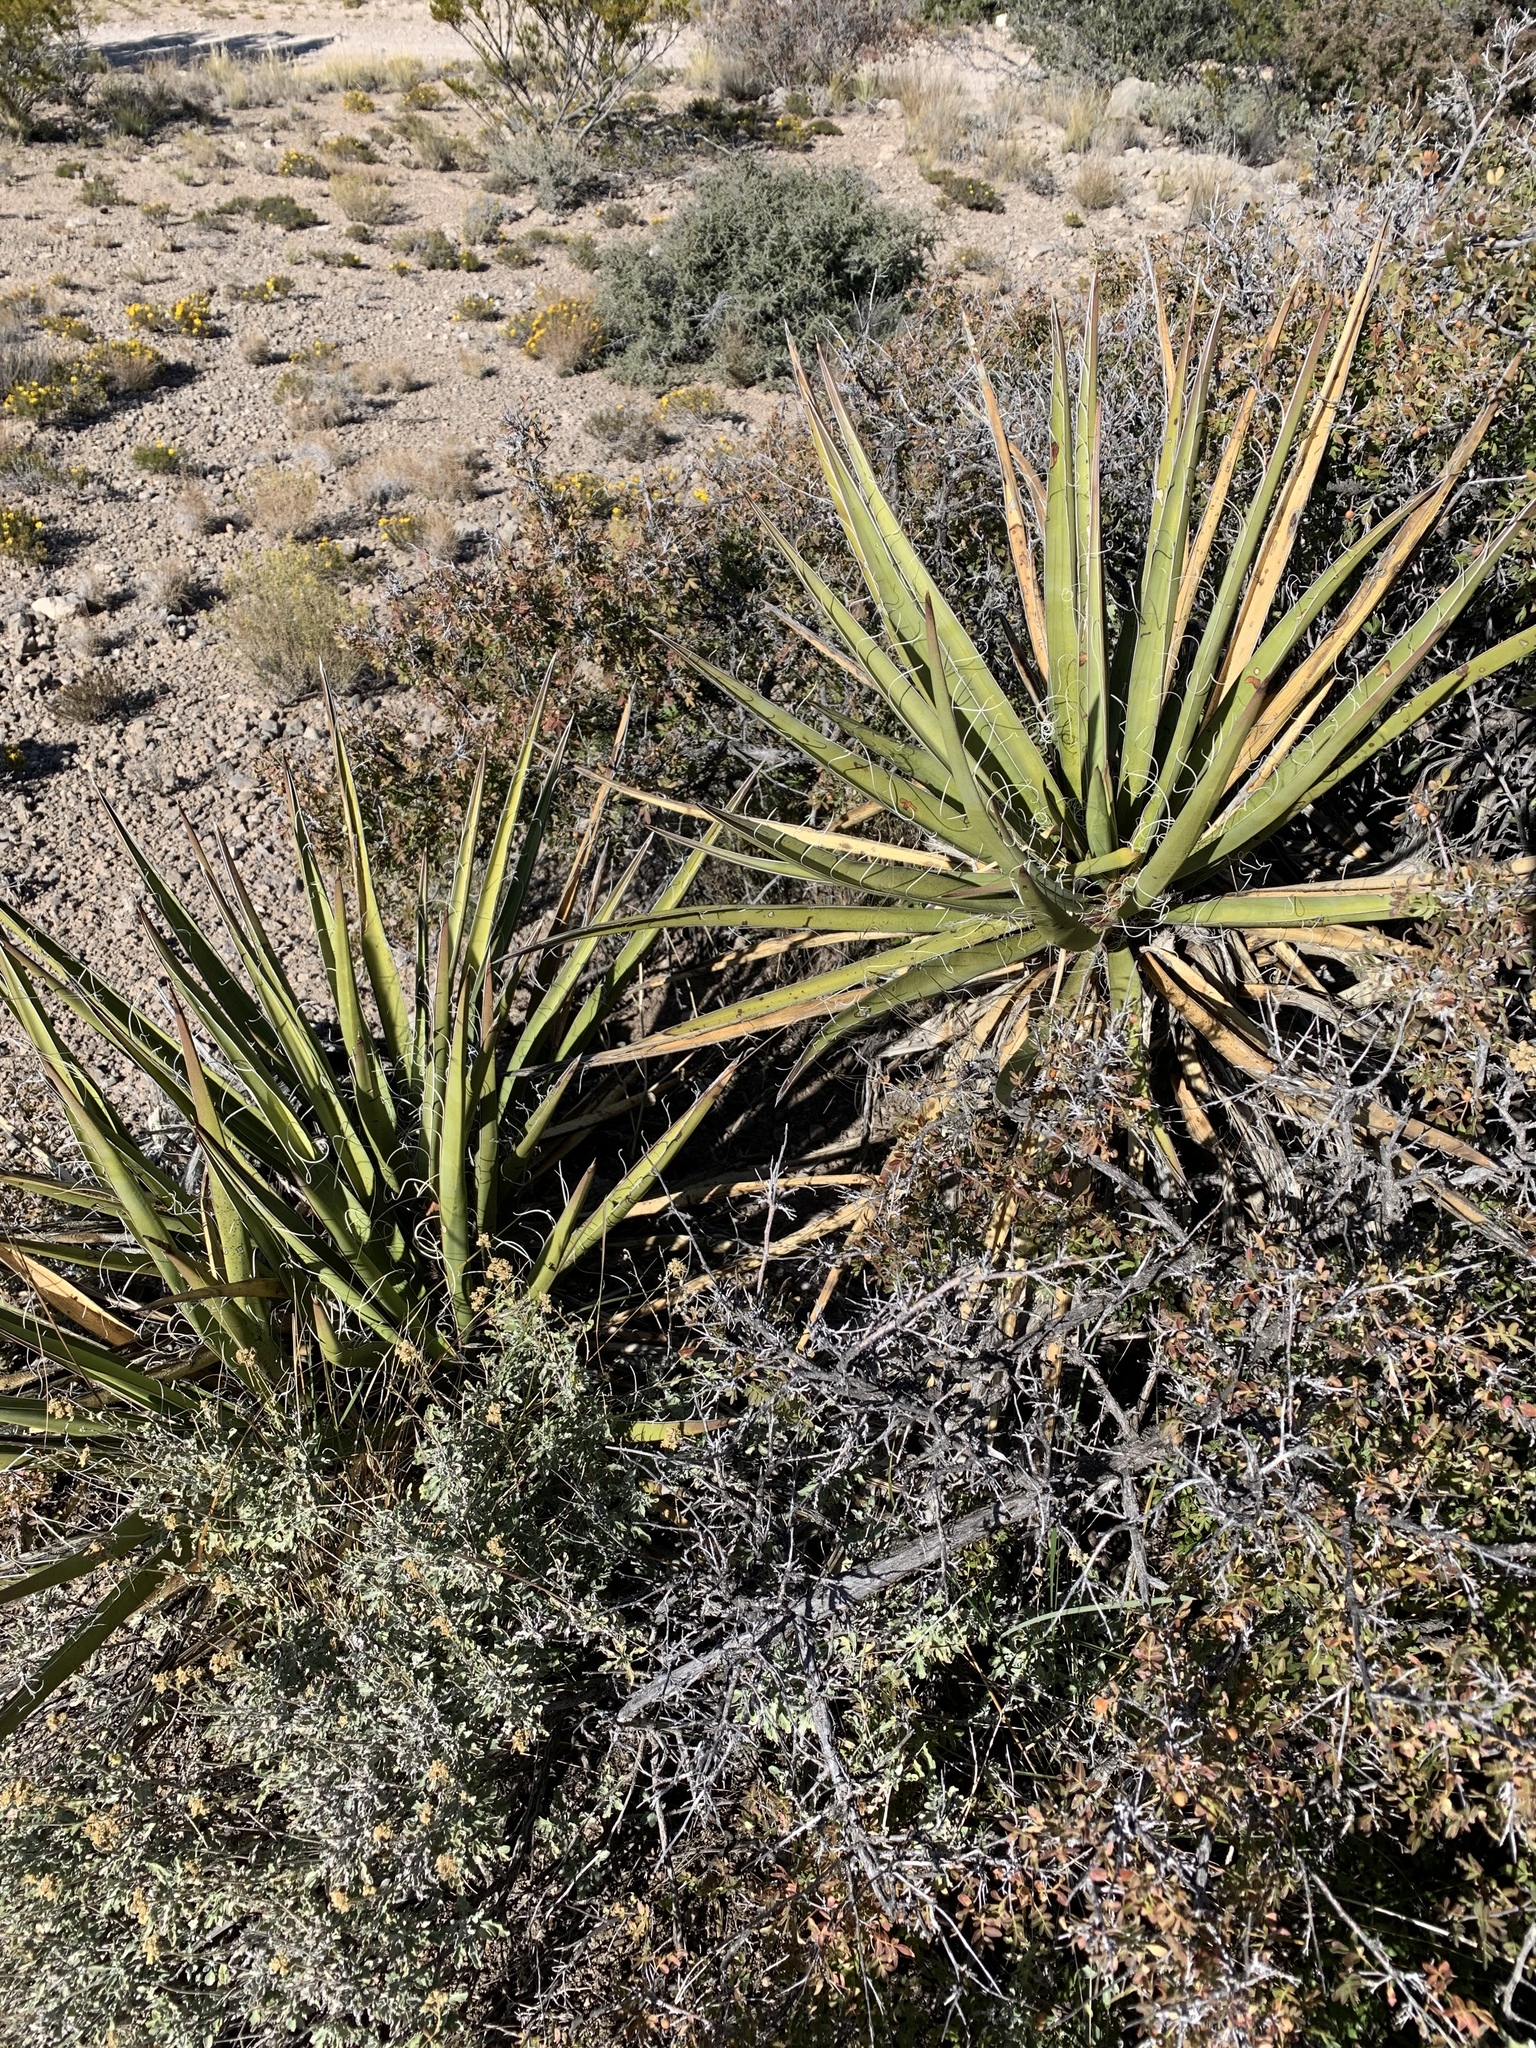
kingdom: Plantae
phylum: Tracheophyta
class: Liliopsida
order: Asparagales
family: Asparagaceae
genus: Yucca
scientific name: Yucca baccata
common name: Banana yucca
